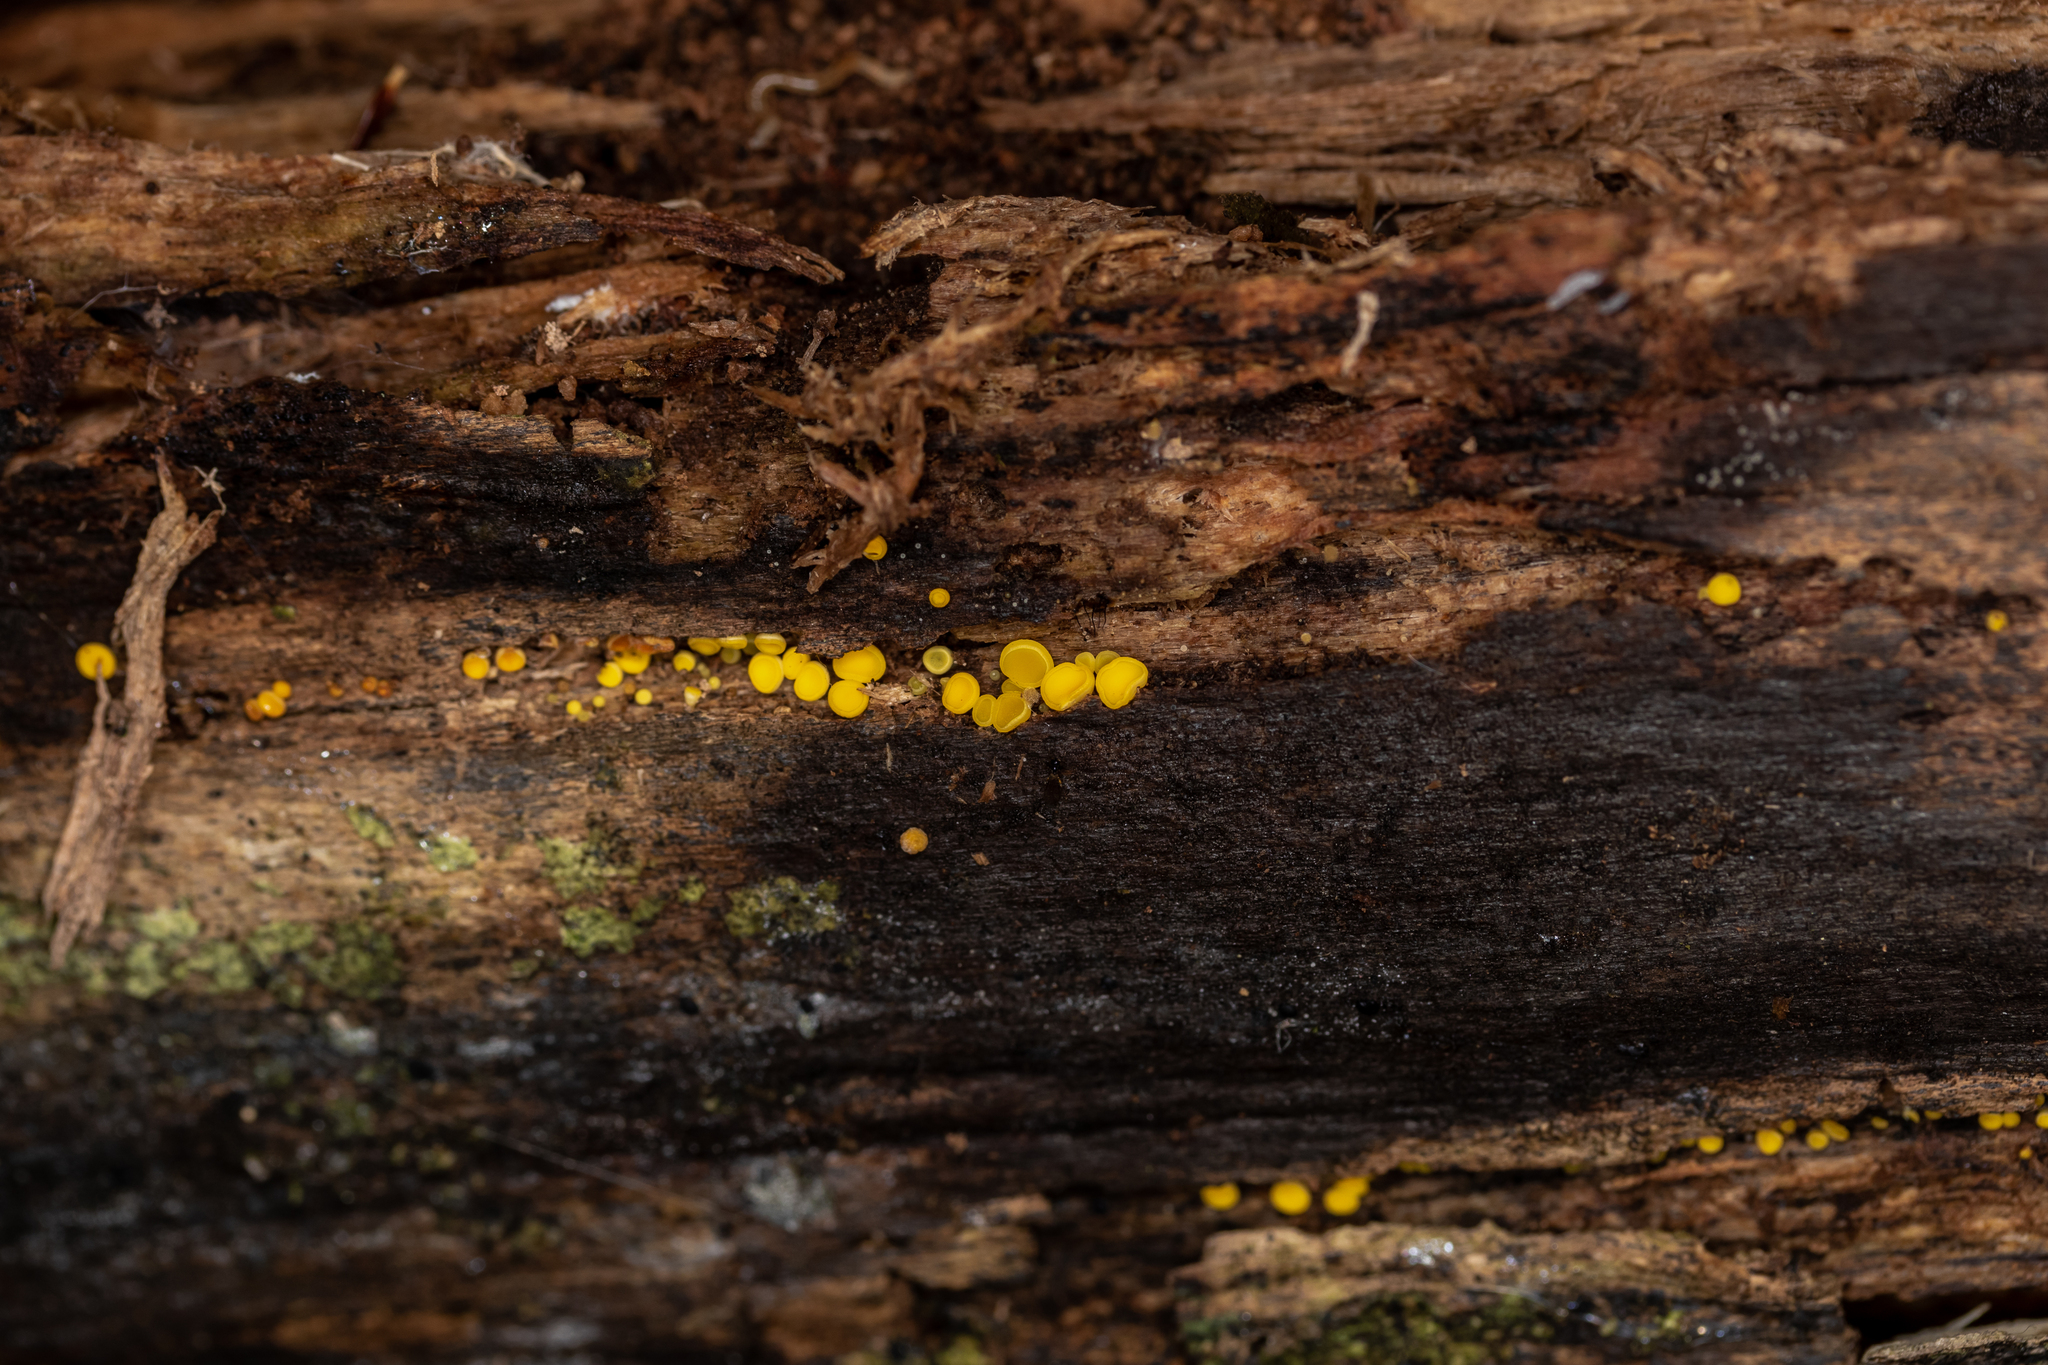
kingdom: Fungi
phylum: Ascomycota
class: Leotiomycetes
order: Helotiales
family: Pezizellaceae
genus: Calycina
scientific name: Calycina citrina
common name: Yellow fairy cups
